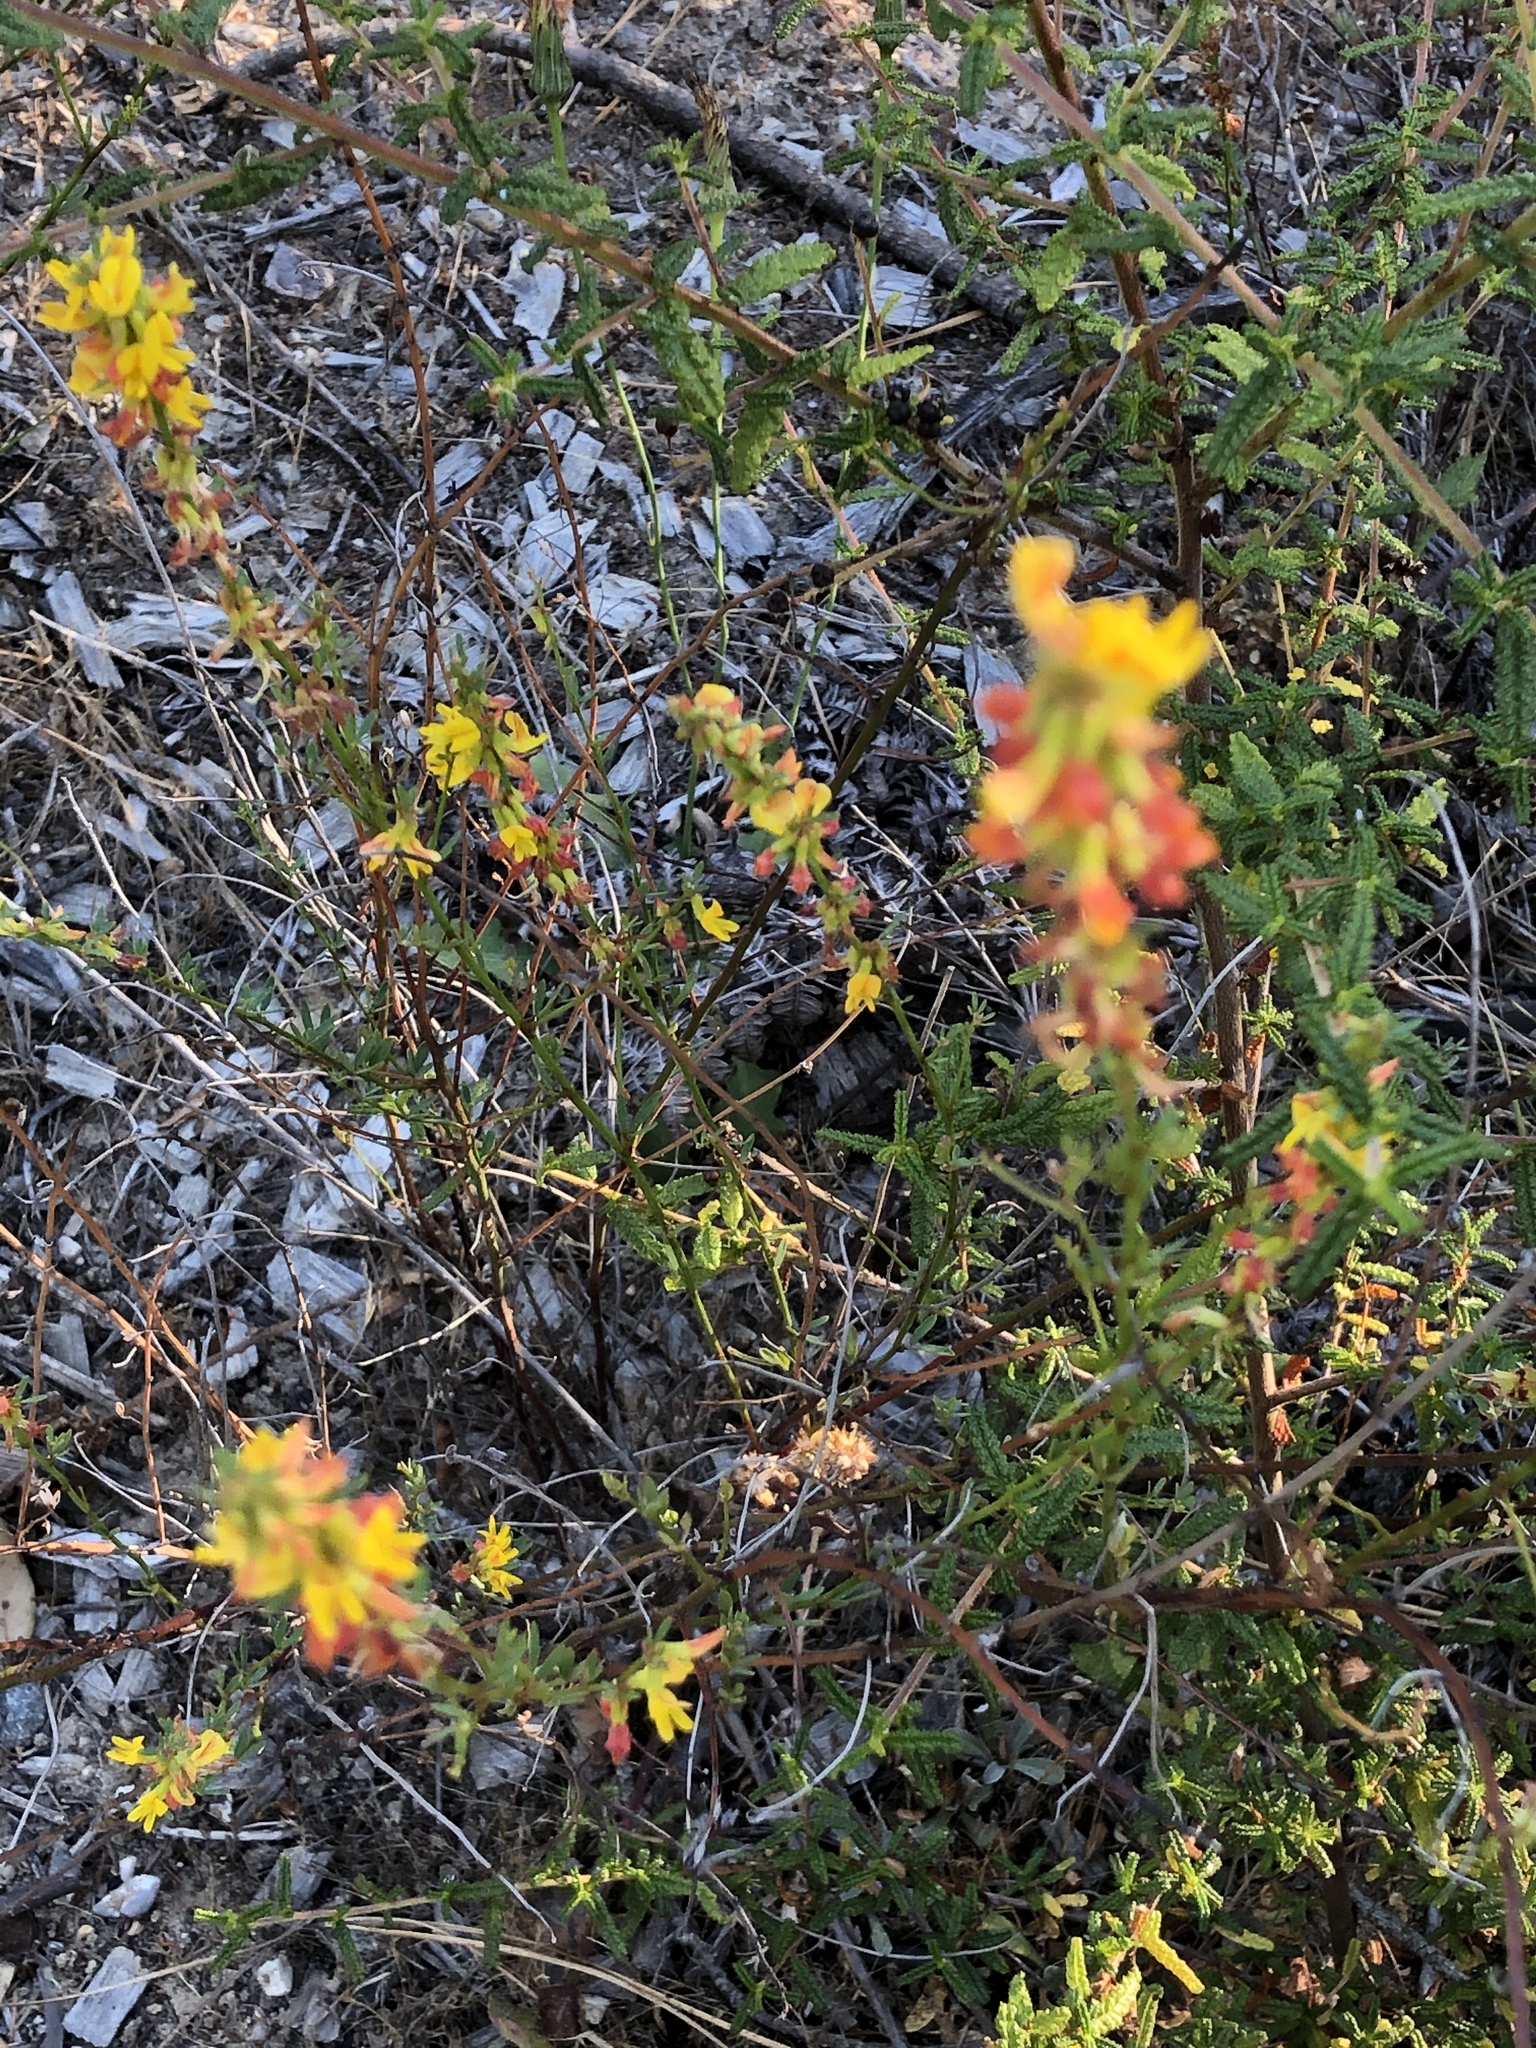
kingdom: Plantae
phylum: Tracheophyta
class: Magnoliopsida
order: Fabales
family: Fabaceae
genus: Acmispon
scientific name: Acmispon glaber
